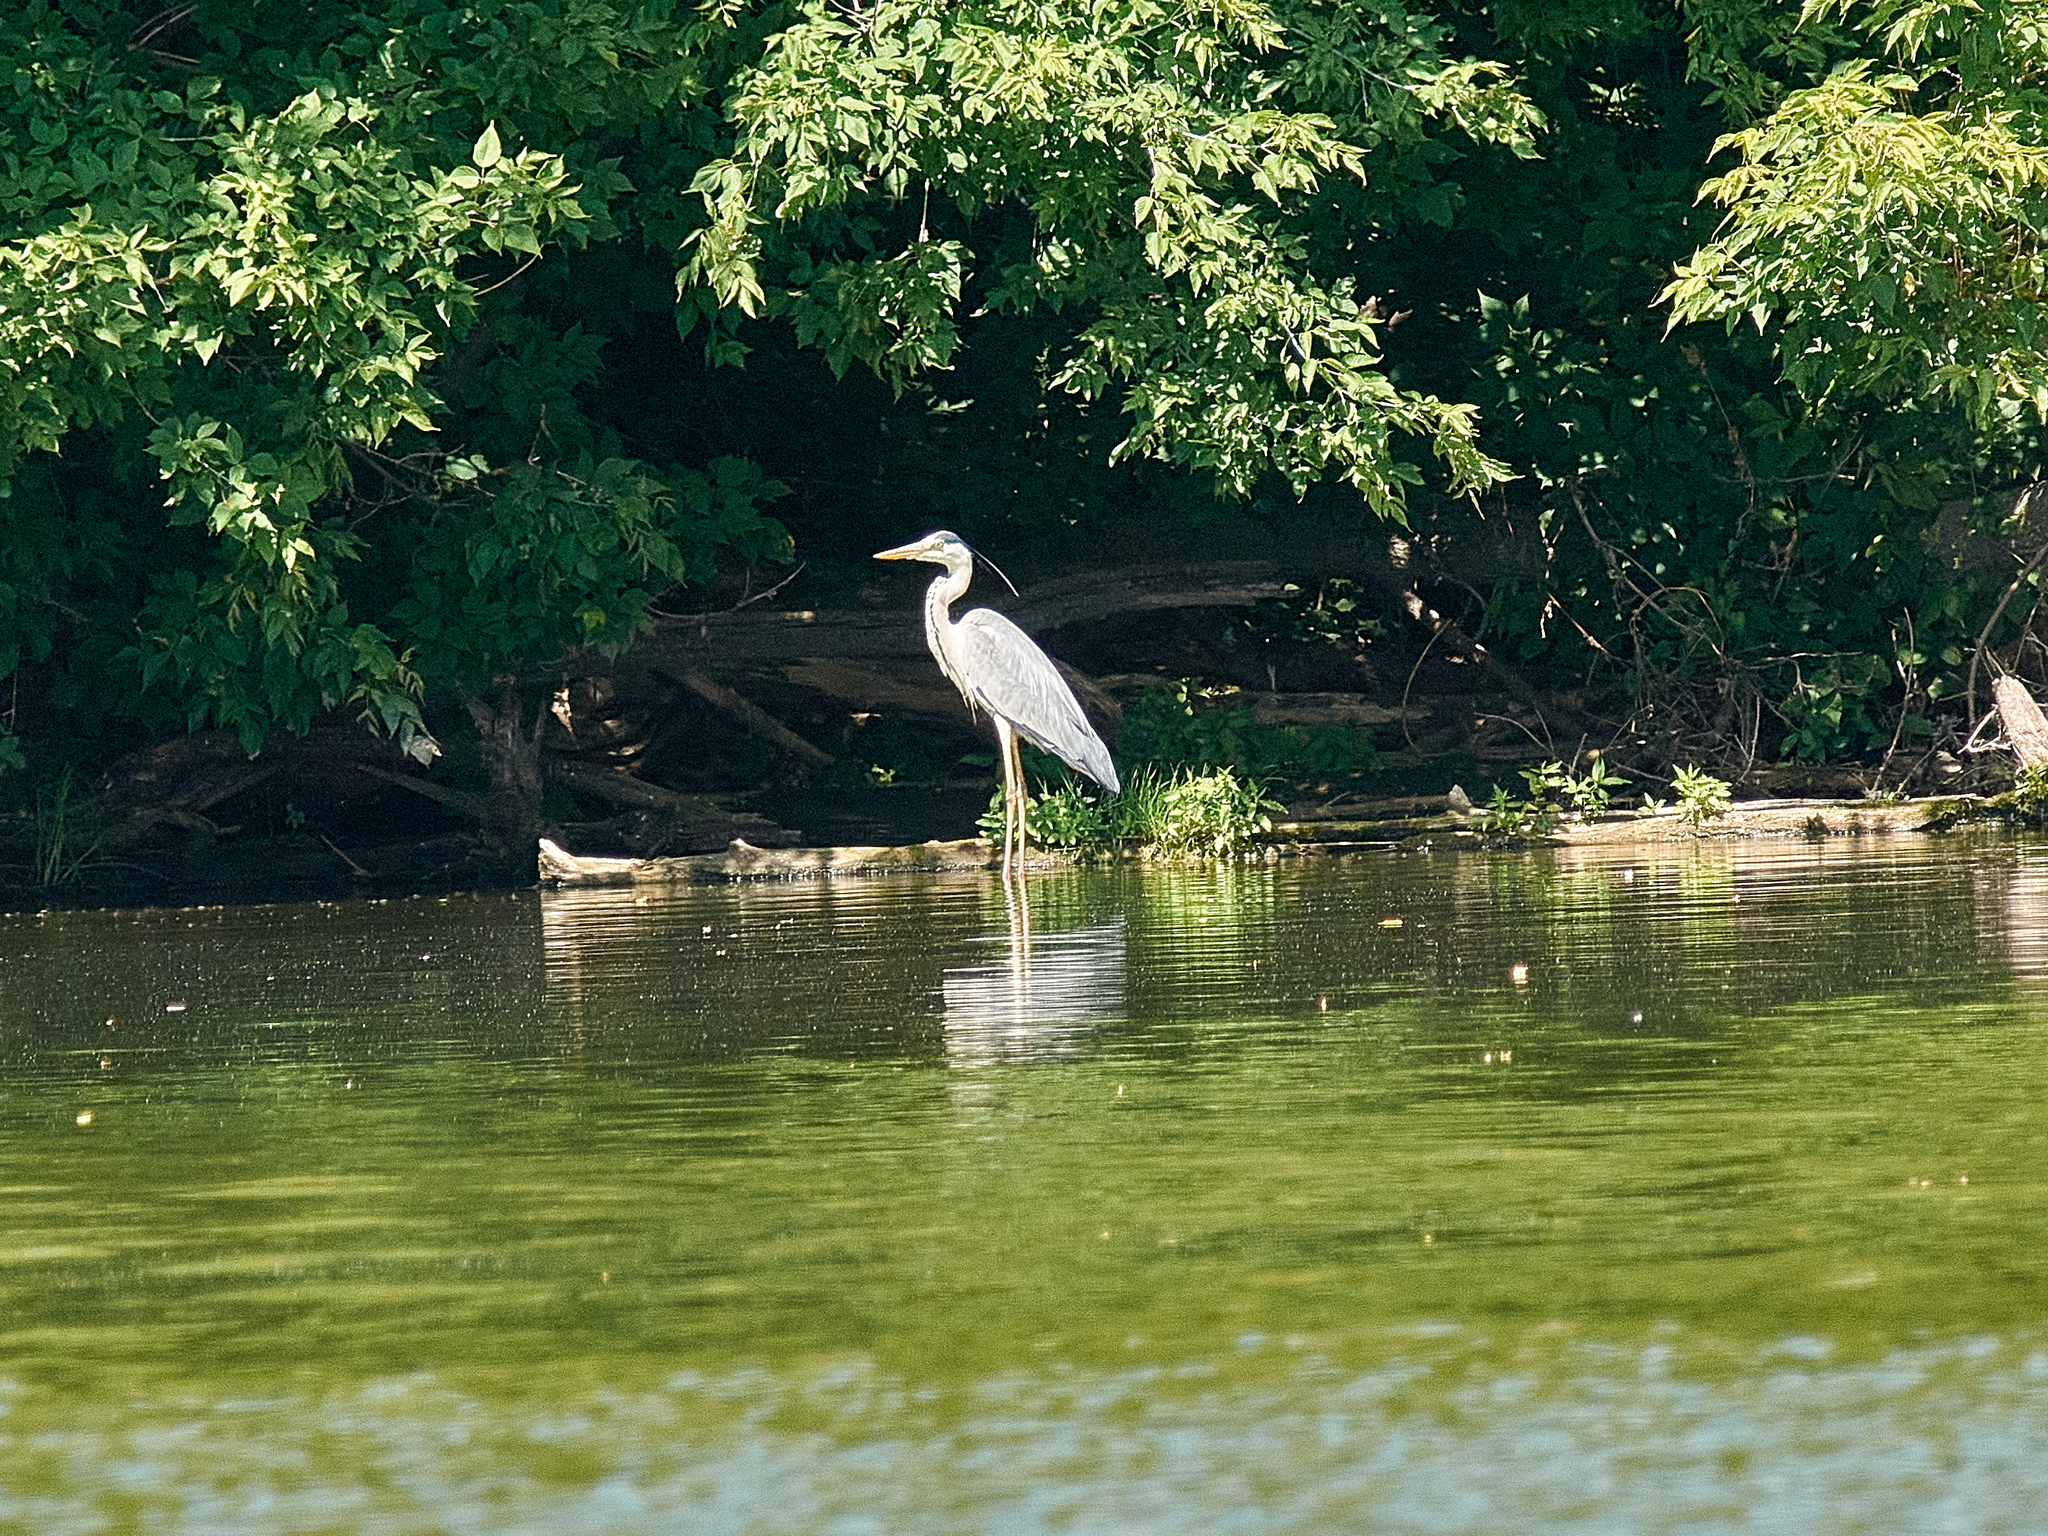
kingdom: Animalia
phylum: Chordata
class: Aves
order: Pelecaniformes
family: Ardeidae
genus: Ardea
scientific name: Ardea cinerea
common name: Grey heron
